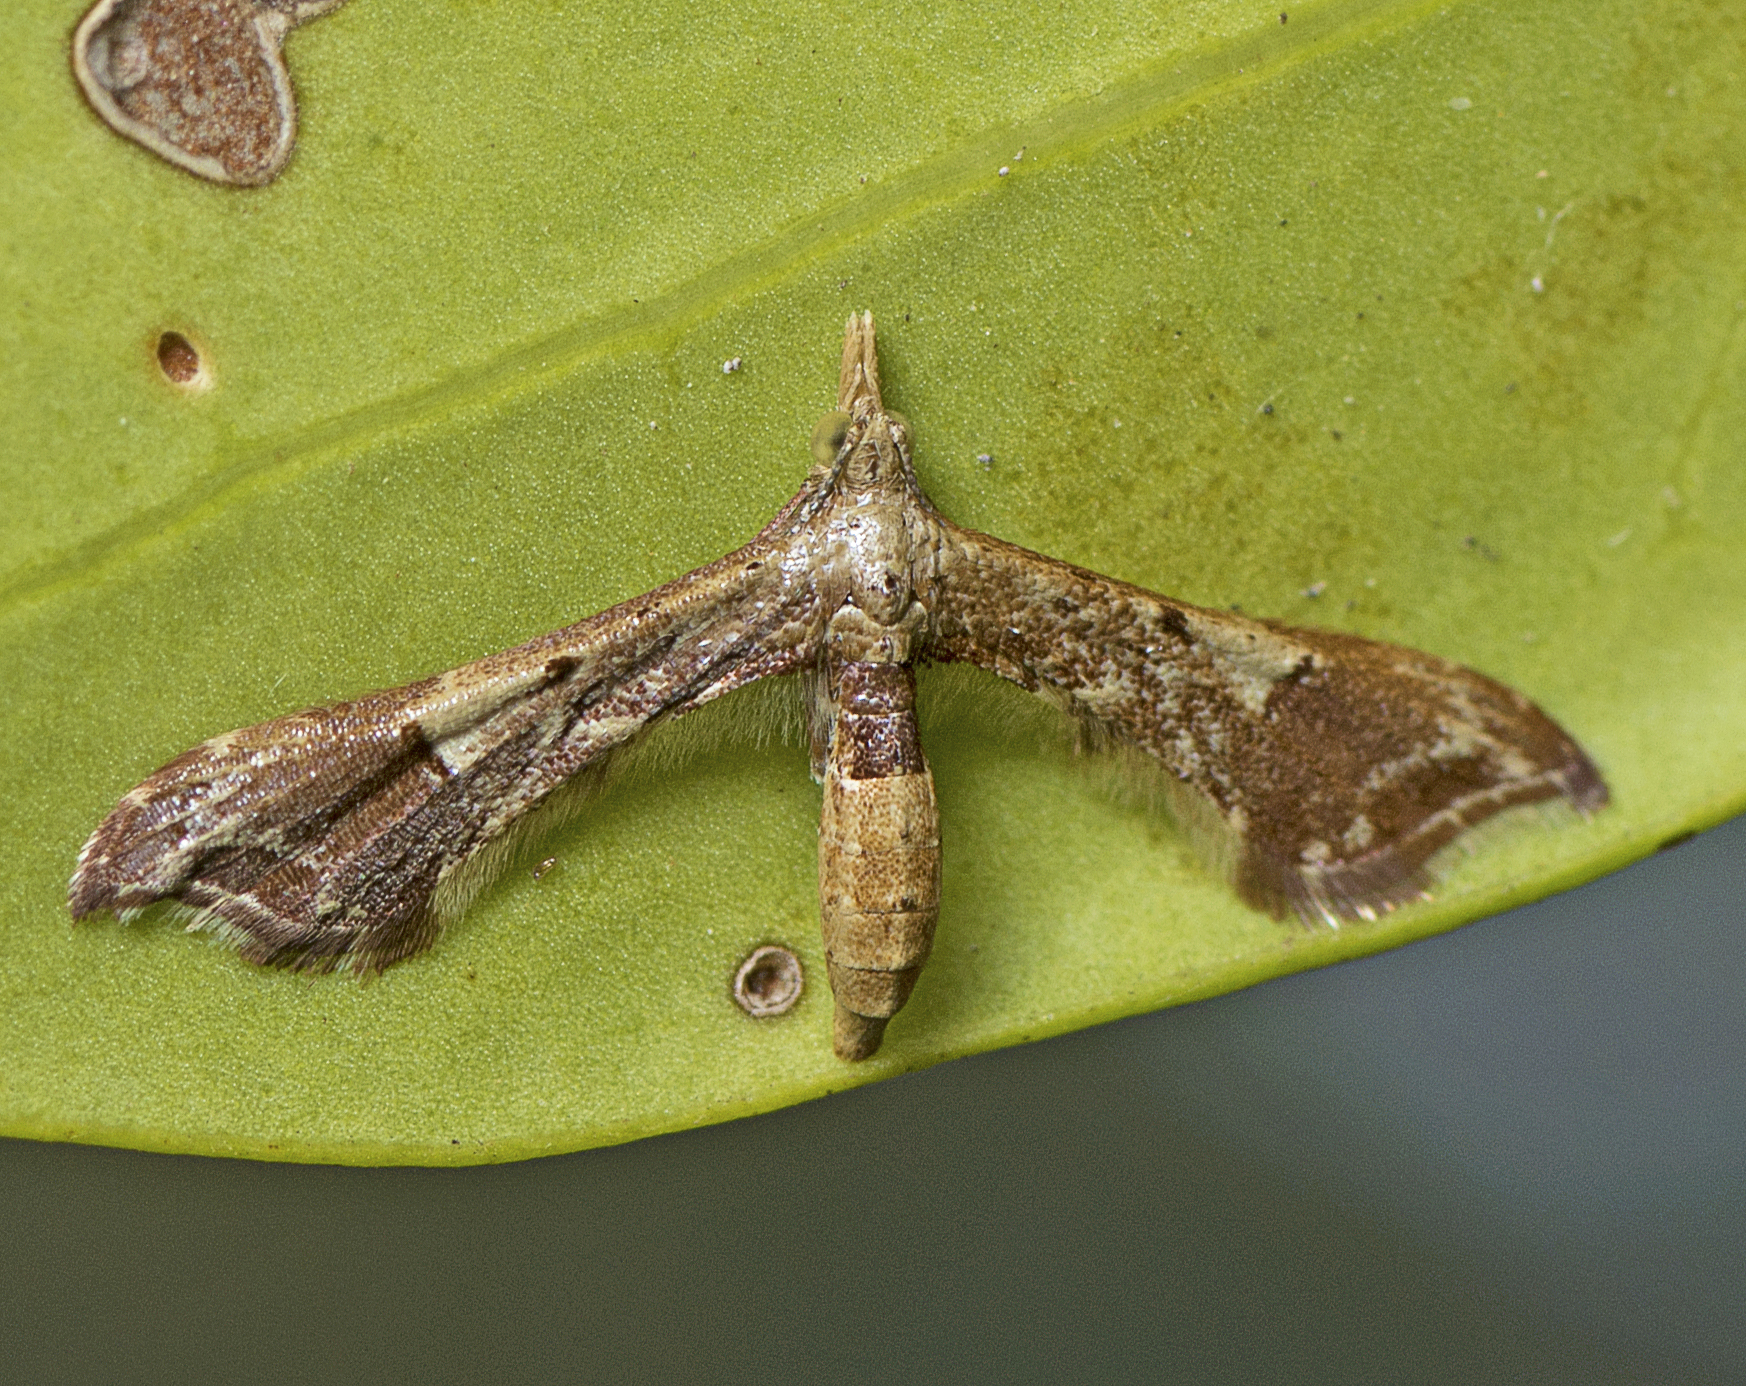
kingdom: Animalia
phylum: Arthropoda
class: Insecta
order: Lepidoptera
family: Alucitidae
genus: Euthrausta
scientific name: Euthrausta phoenicea
